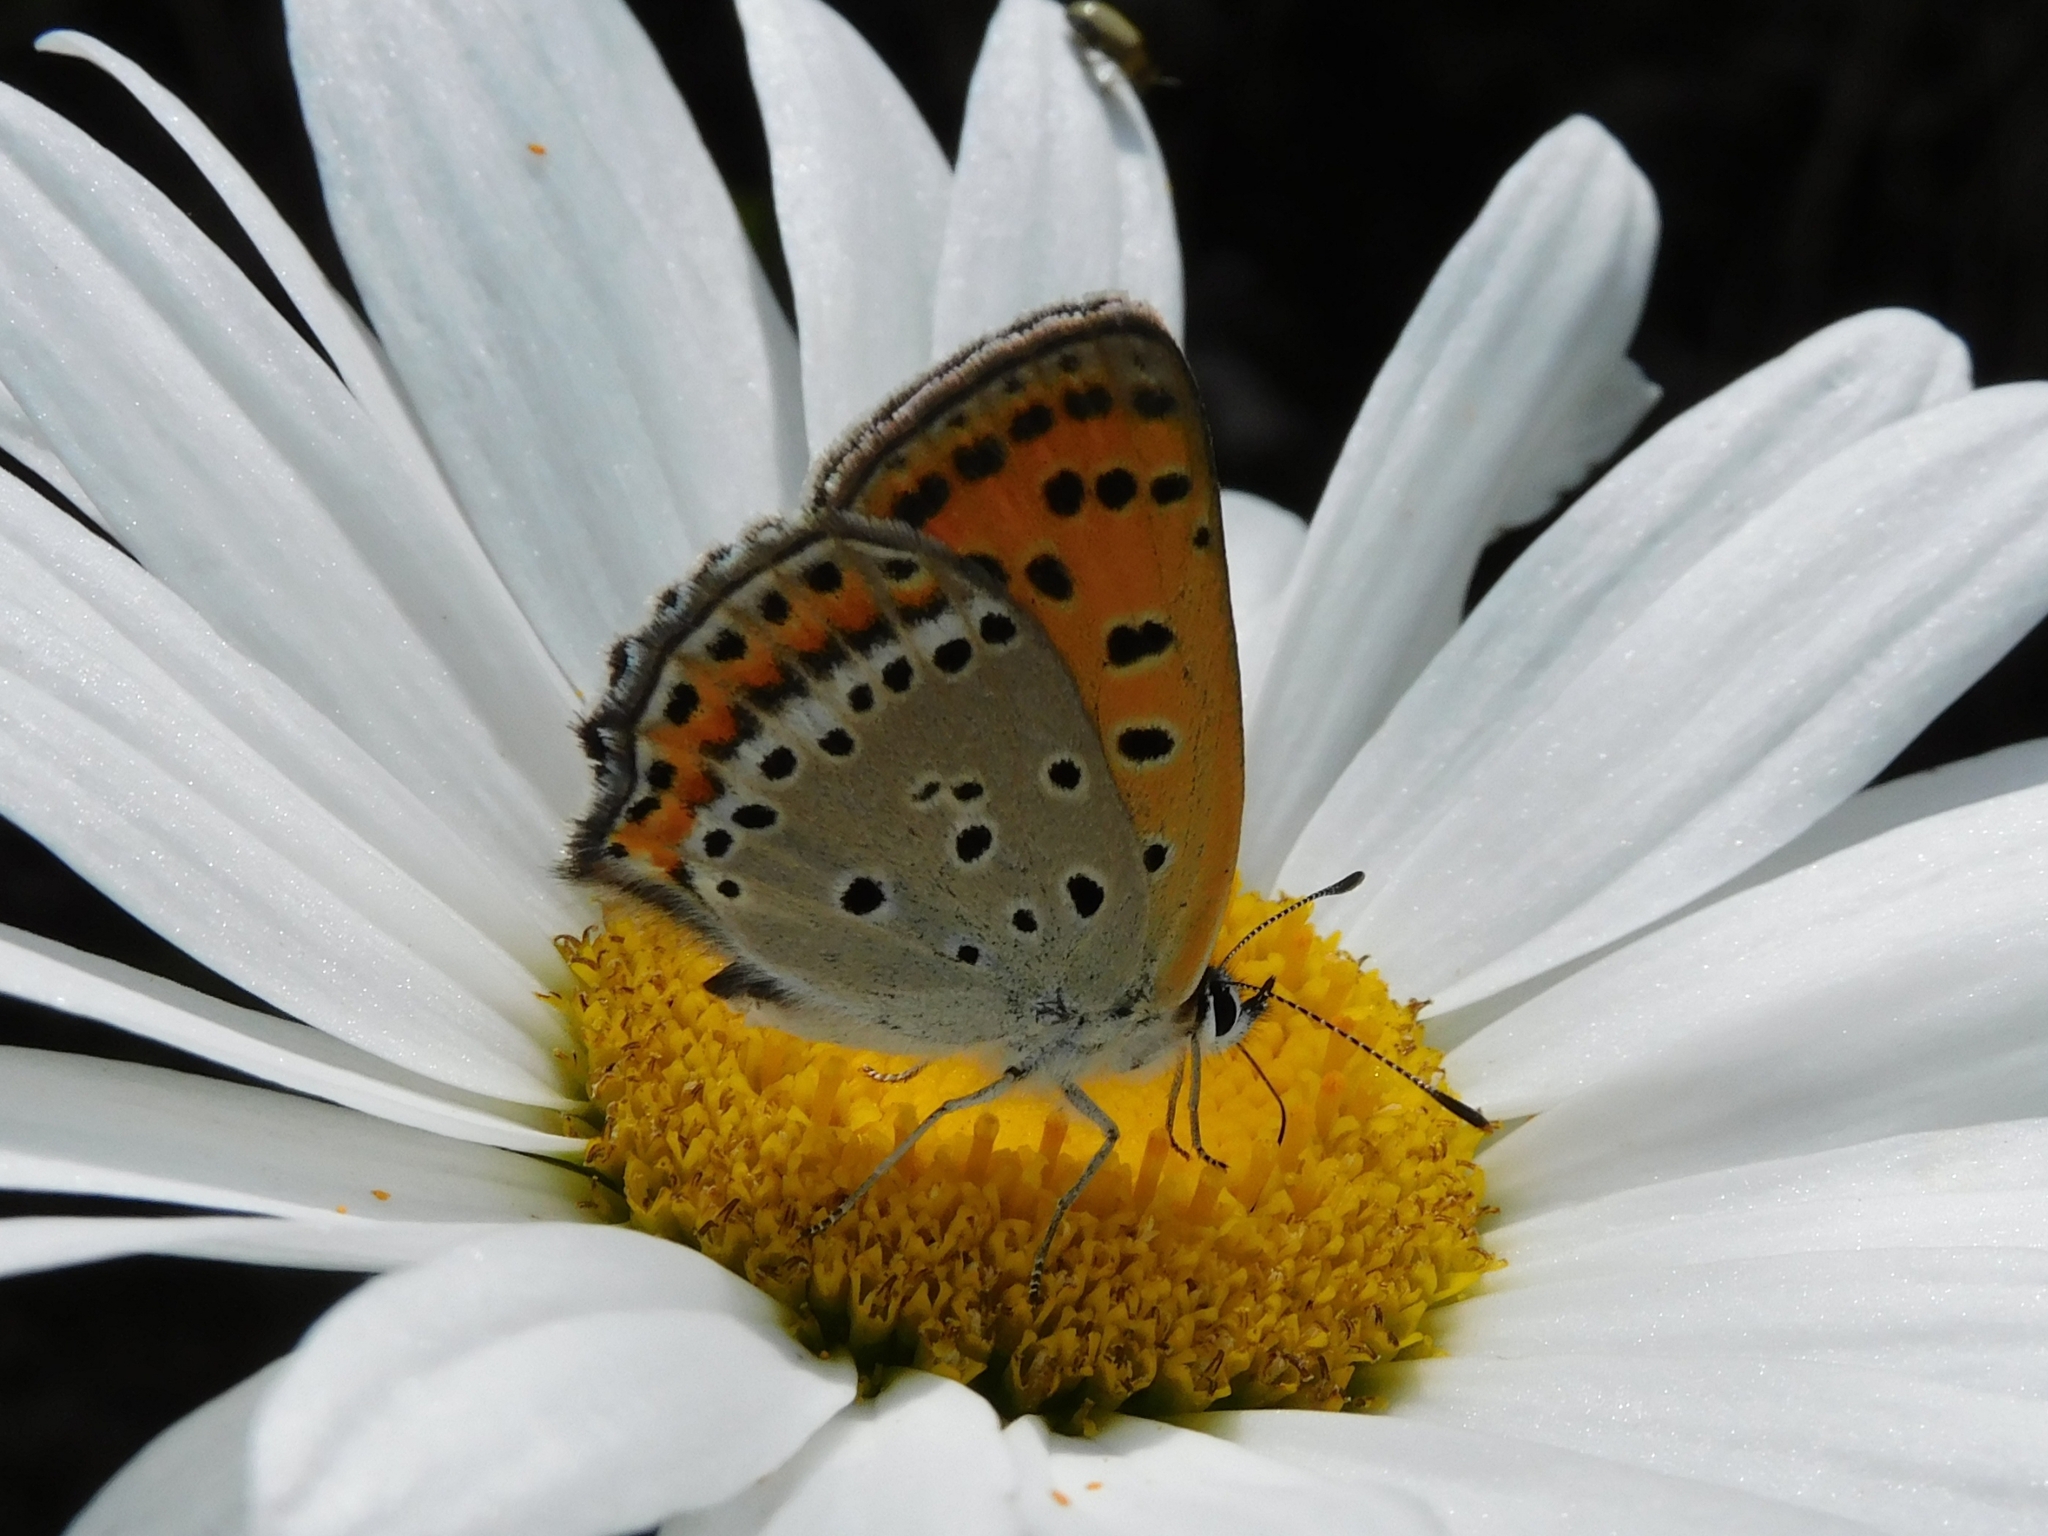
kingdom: Animalia
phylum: Arthropoda
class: Insecta
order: Lepidoptera
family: Lycaenidae
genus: Lycaena
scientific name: Lycaena panava
